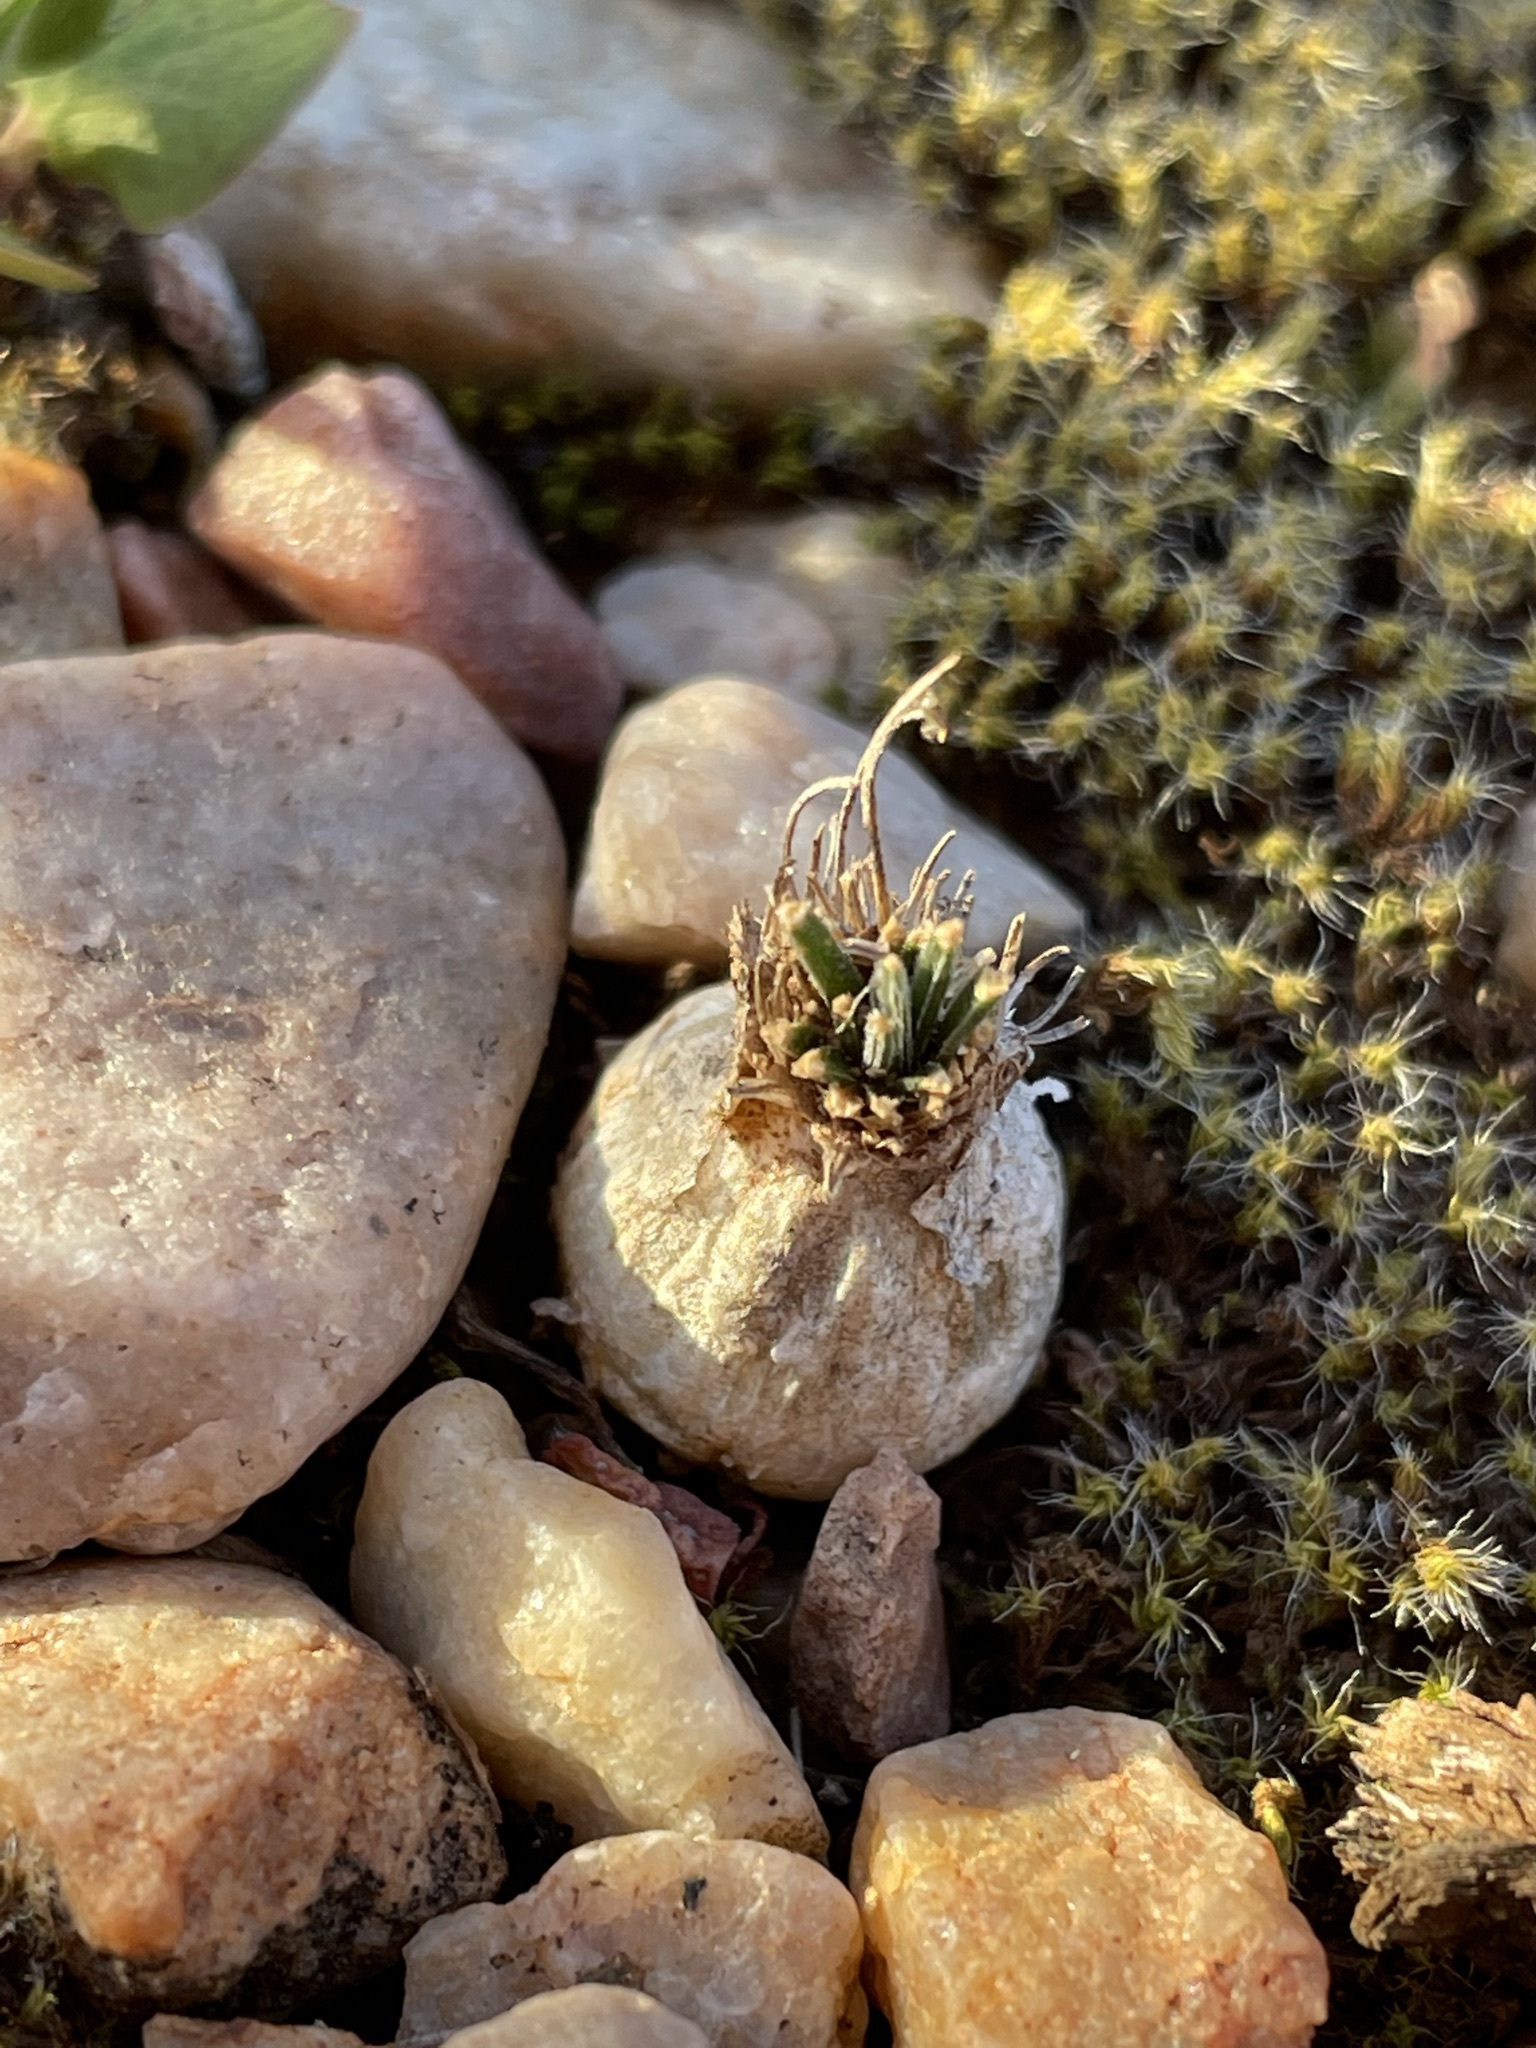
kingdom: Plantae
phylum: Tracheophyta
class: Liliopsida
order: Asparagales
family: Asparagaceae
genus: Ornithogalum
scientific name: Ornithogalum sardienii
